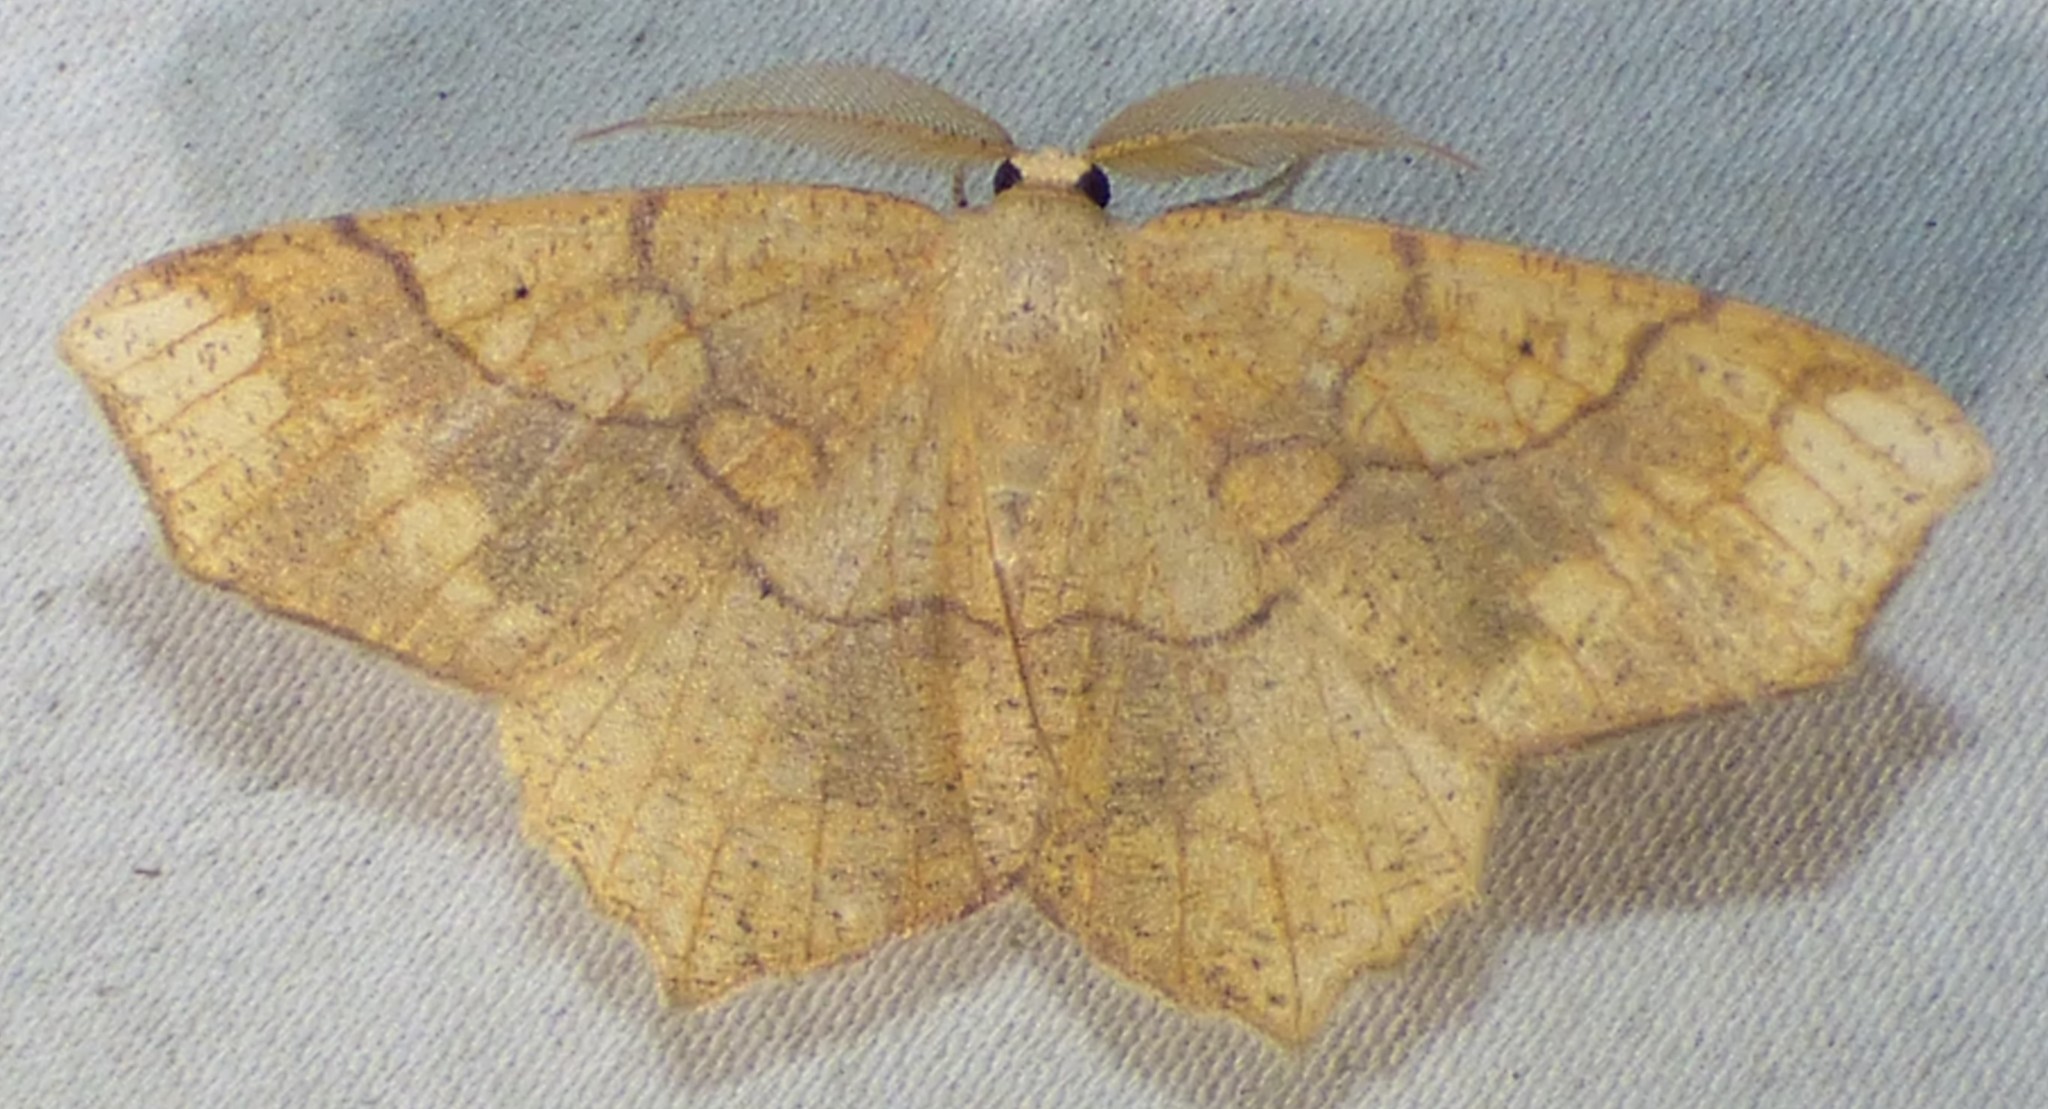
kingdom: Animalia
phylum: Arthropoda
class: Insecta
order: Lepidoptera
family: Geometridae
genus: Besma
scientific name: Besma quercivoraria
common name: Oak besma
